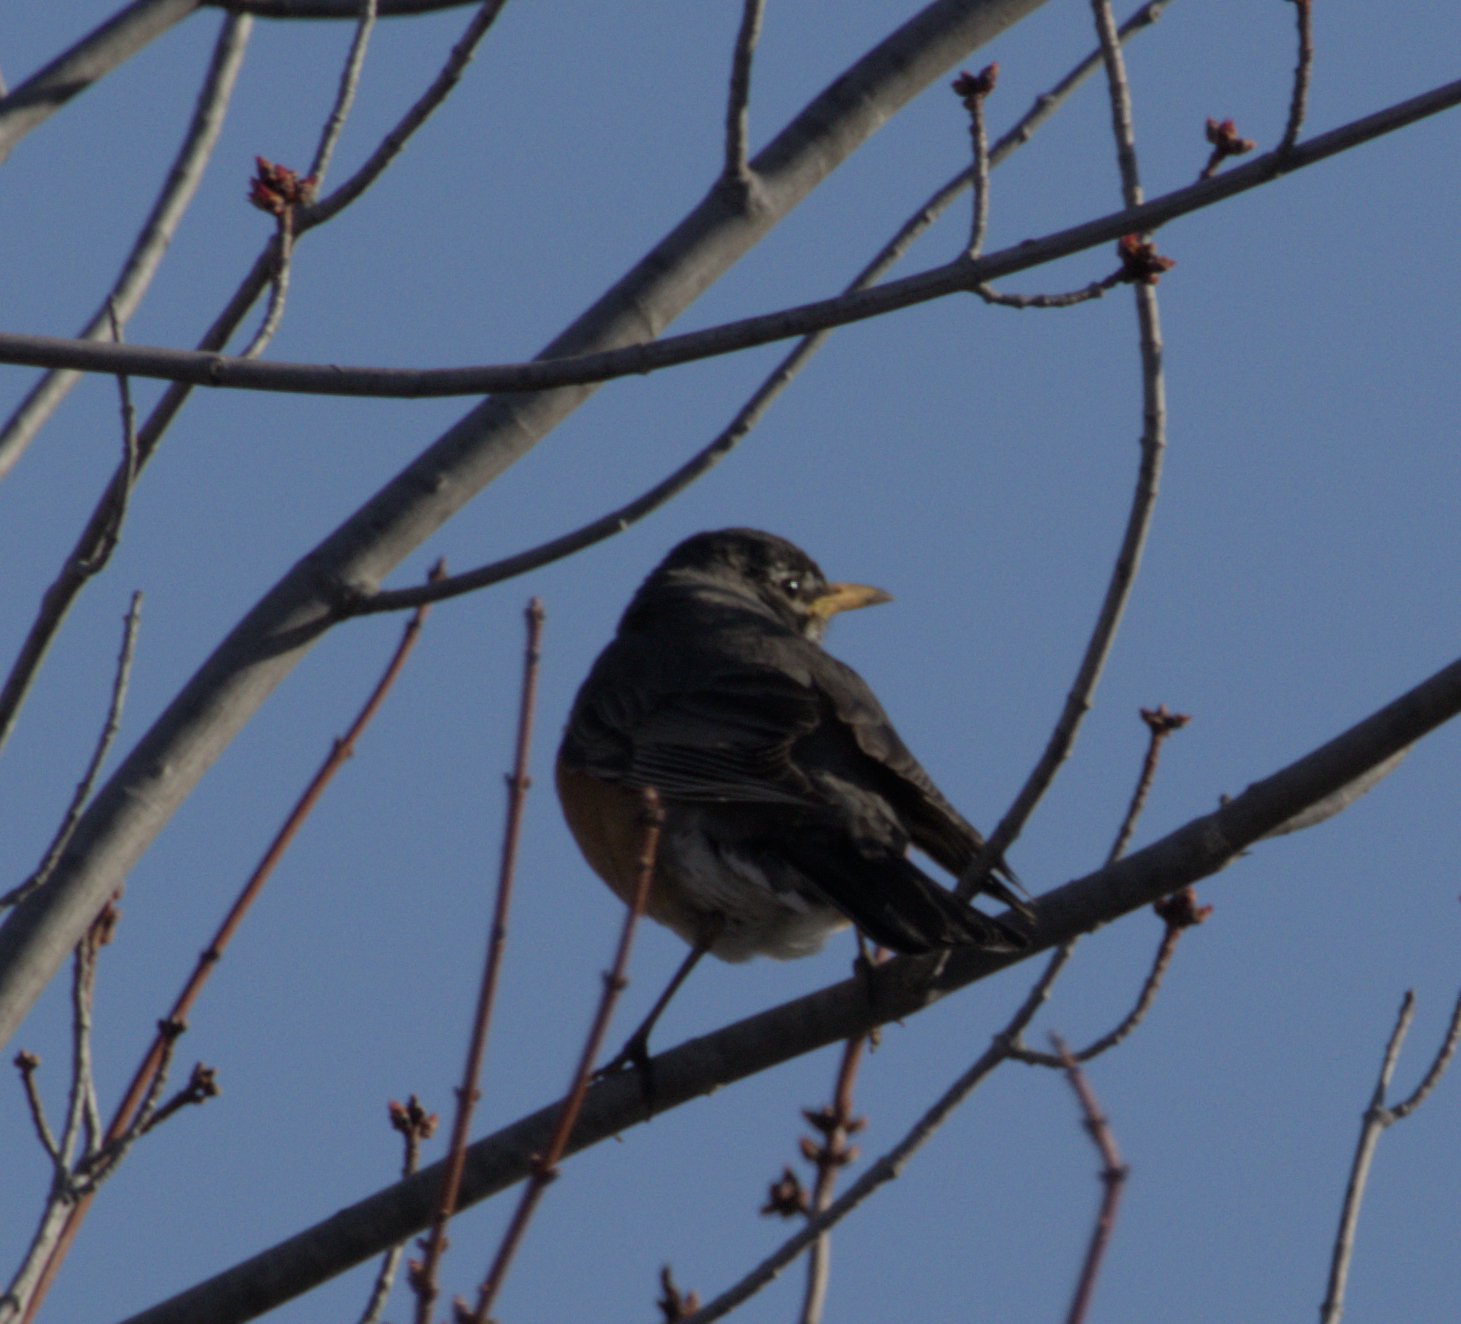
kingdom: Animalia
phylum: Chordata
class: Aves
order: Passeriformes
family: Turdidae
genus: Turdus
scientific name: Turdus migratorius
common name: American robin
